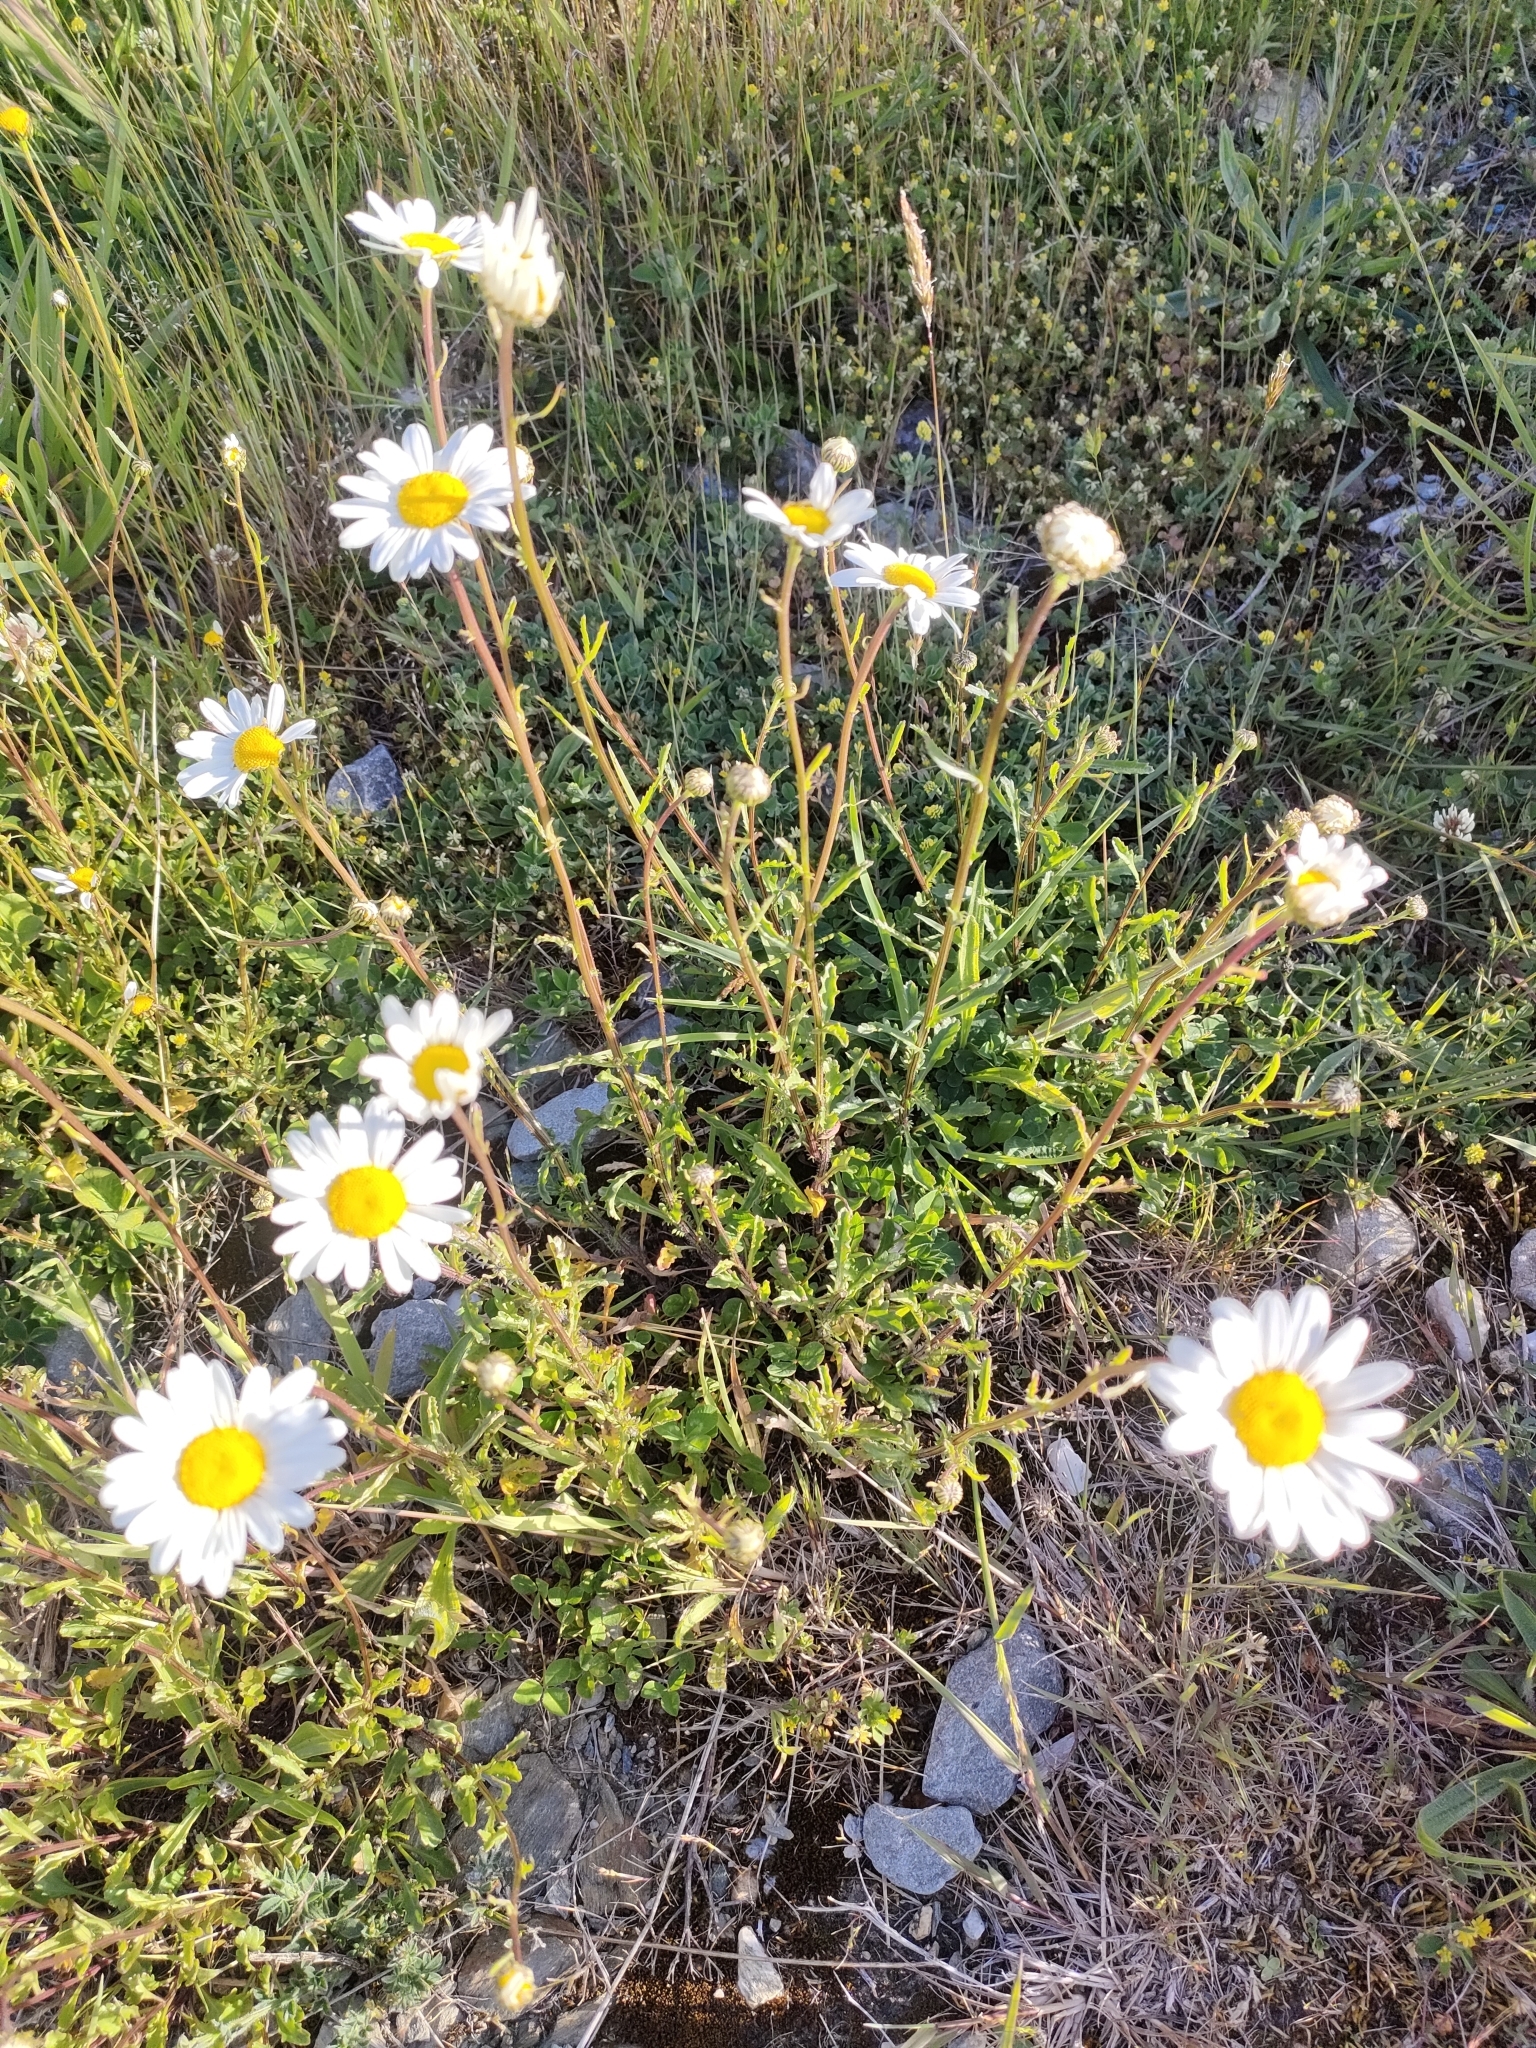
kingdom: Plantae
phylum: Tracheophyta
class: Magnoliopsida
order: Asterales
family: Asteraceae
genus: Leucanthemum
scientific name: Leucanthemum vulgare
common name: Oxeye daisy
